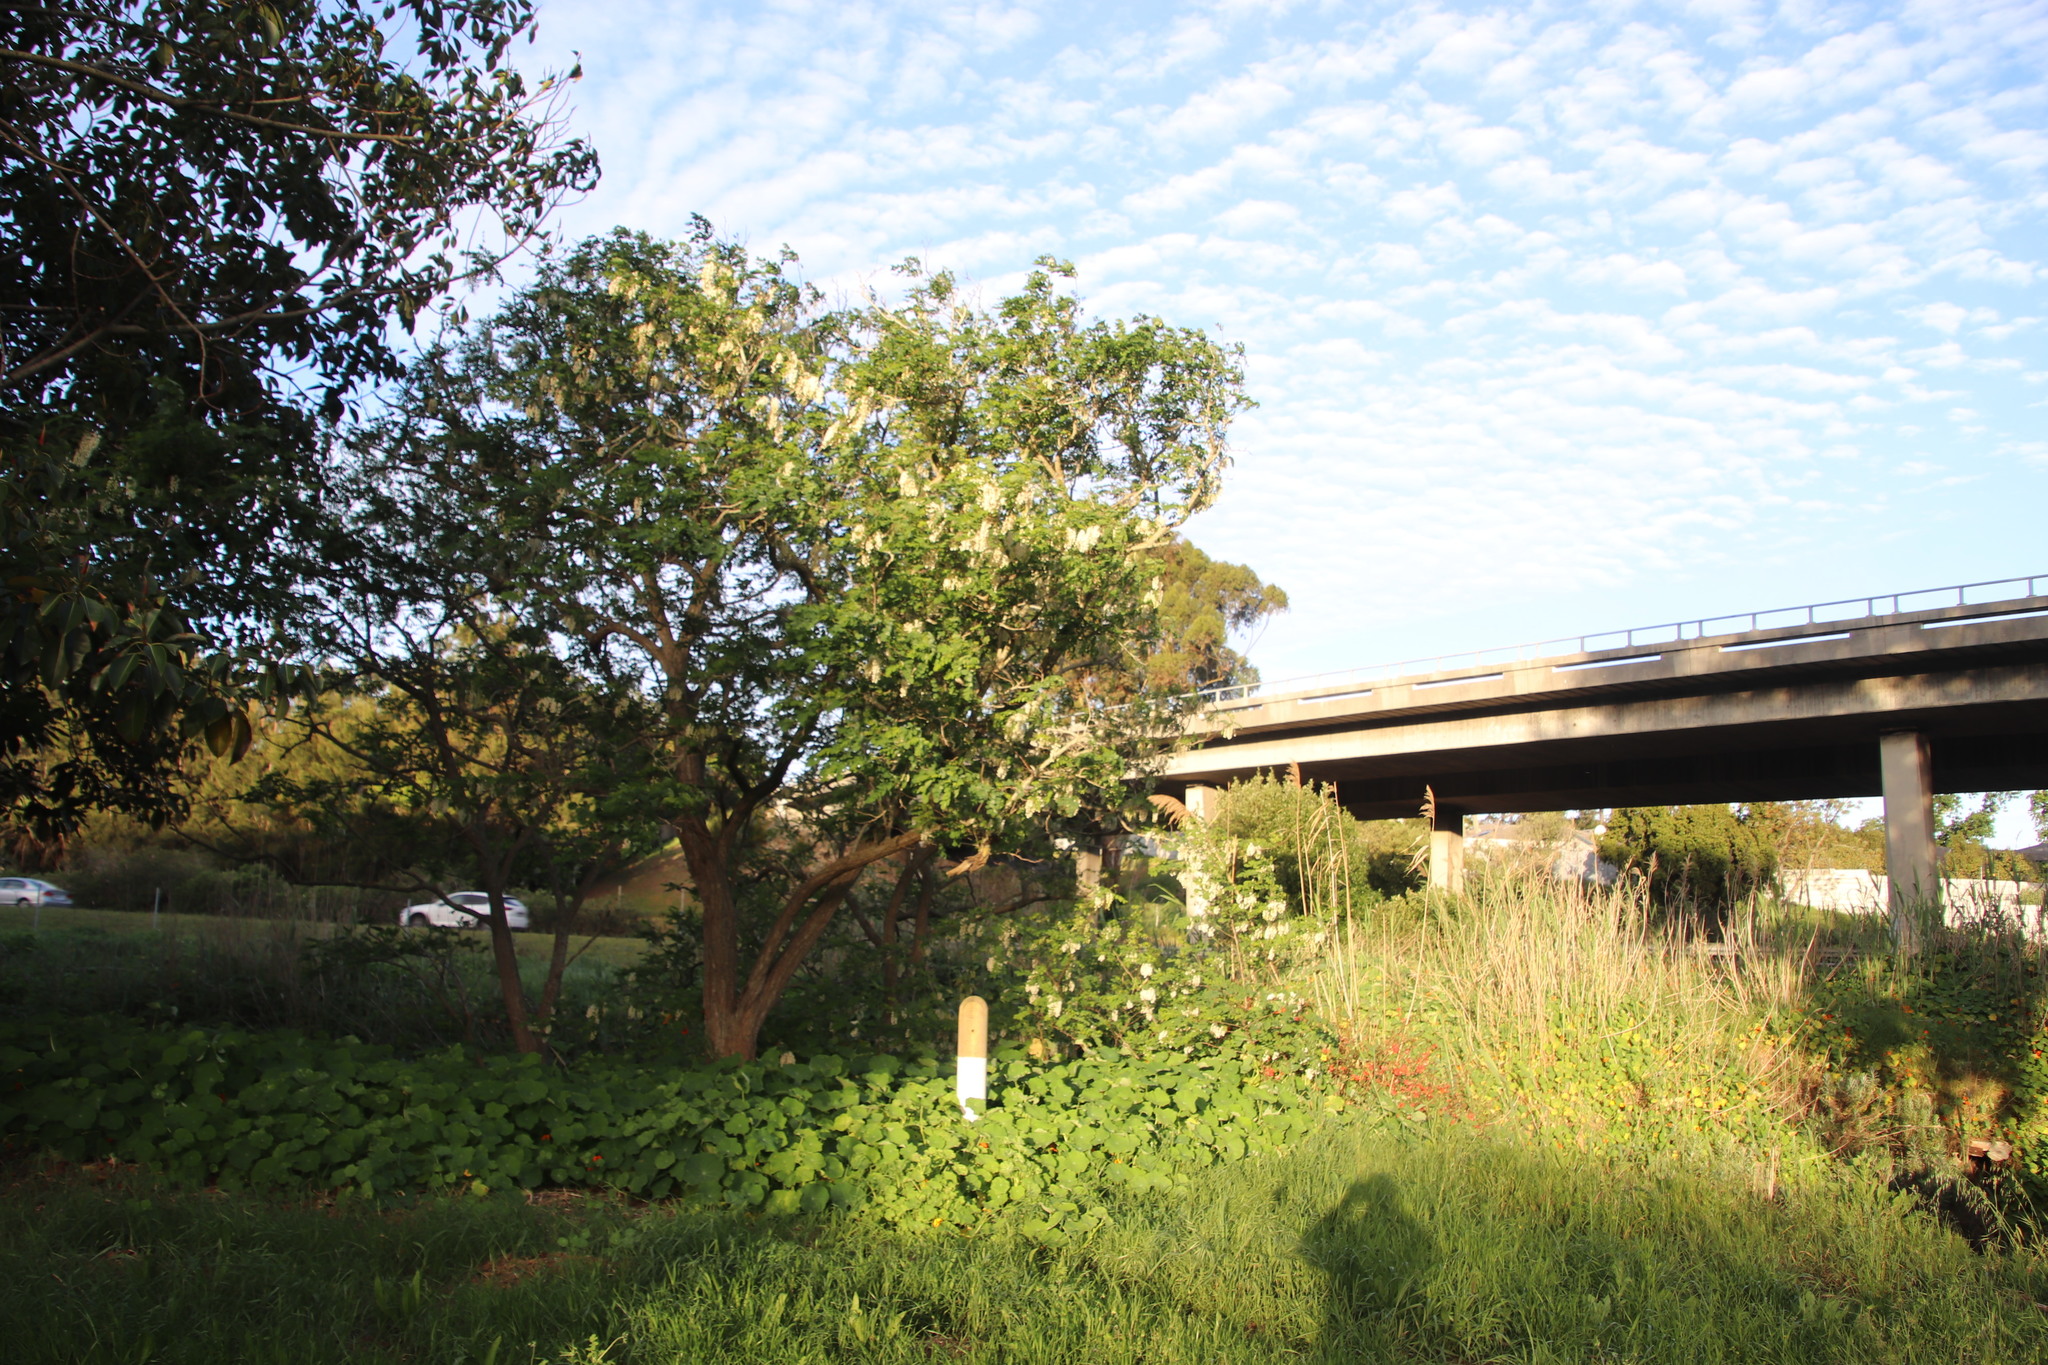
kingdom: Plantae
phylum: Tracheophyta
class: Magnoliopsida
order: Fabales
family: Fabaceae
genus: Robinia
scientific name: Robinia pseudoacacia
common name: Black locust
